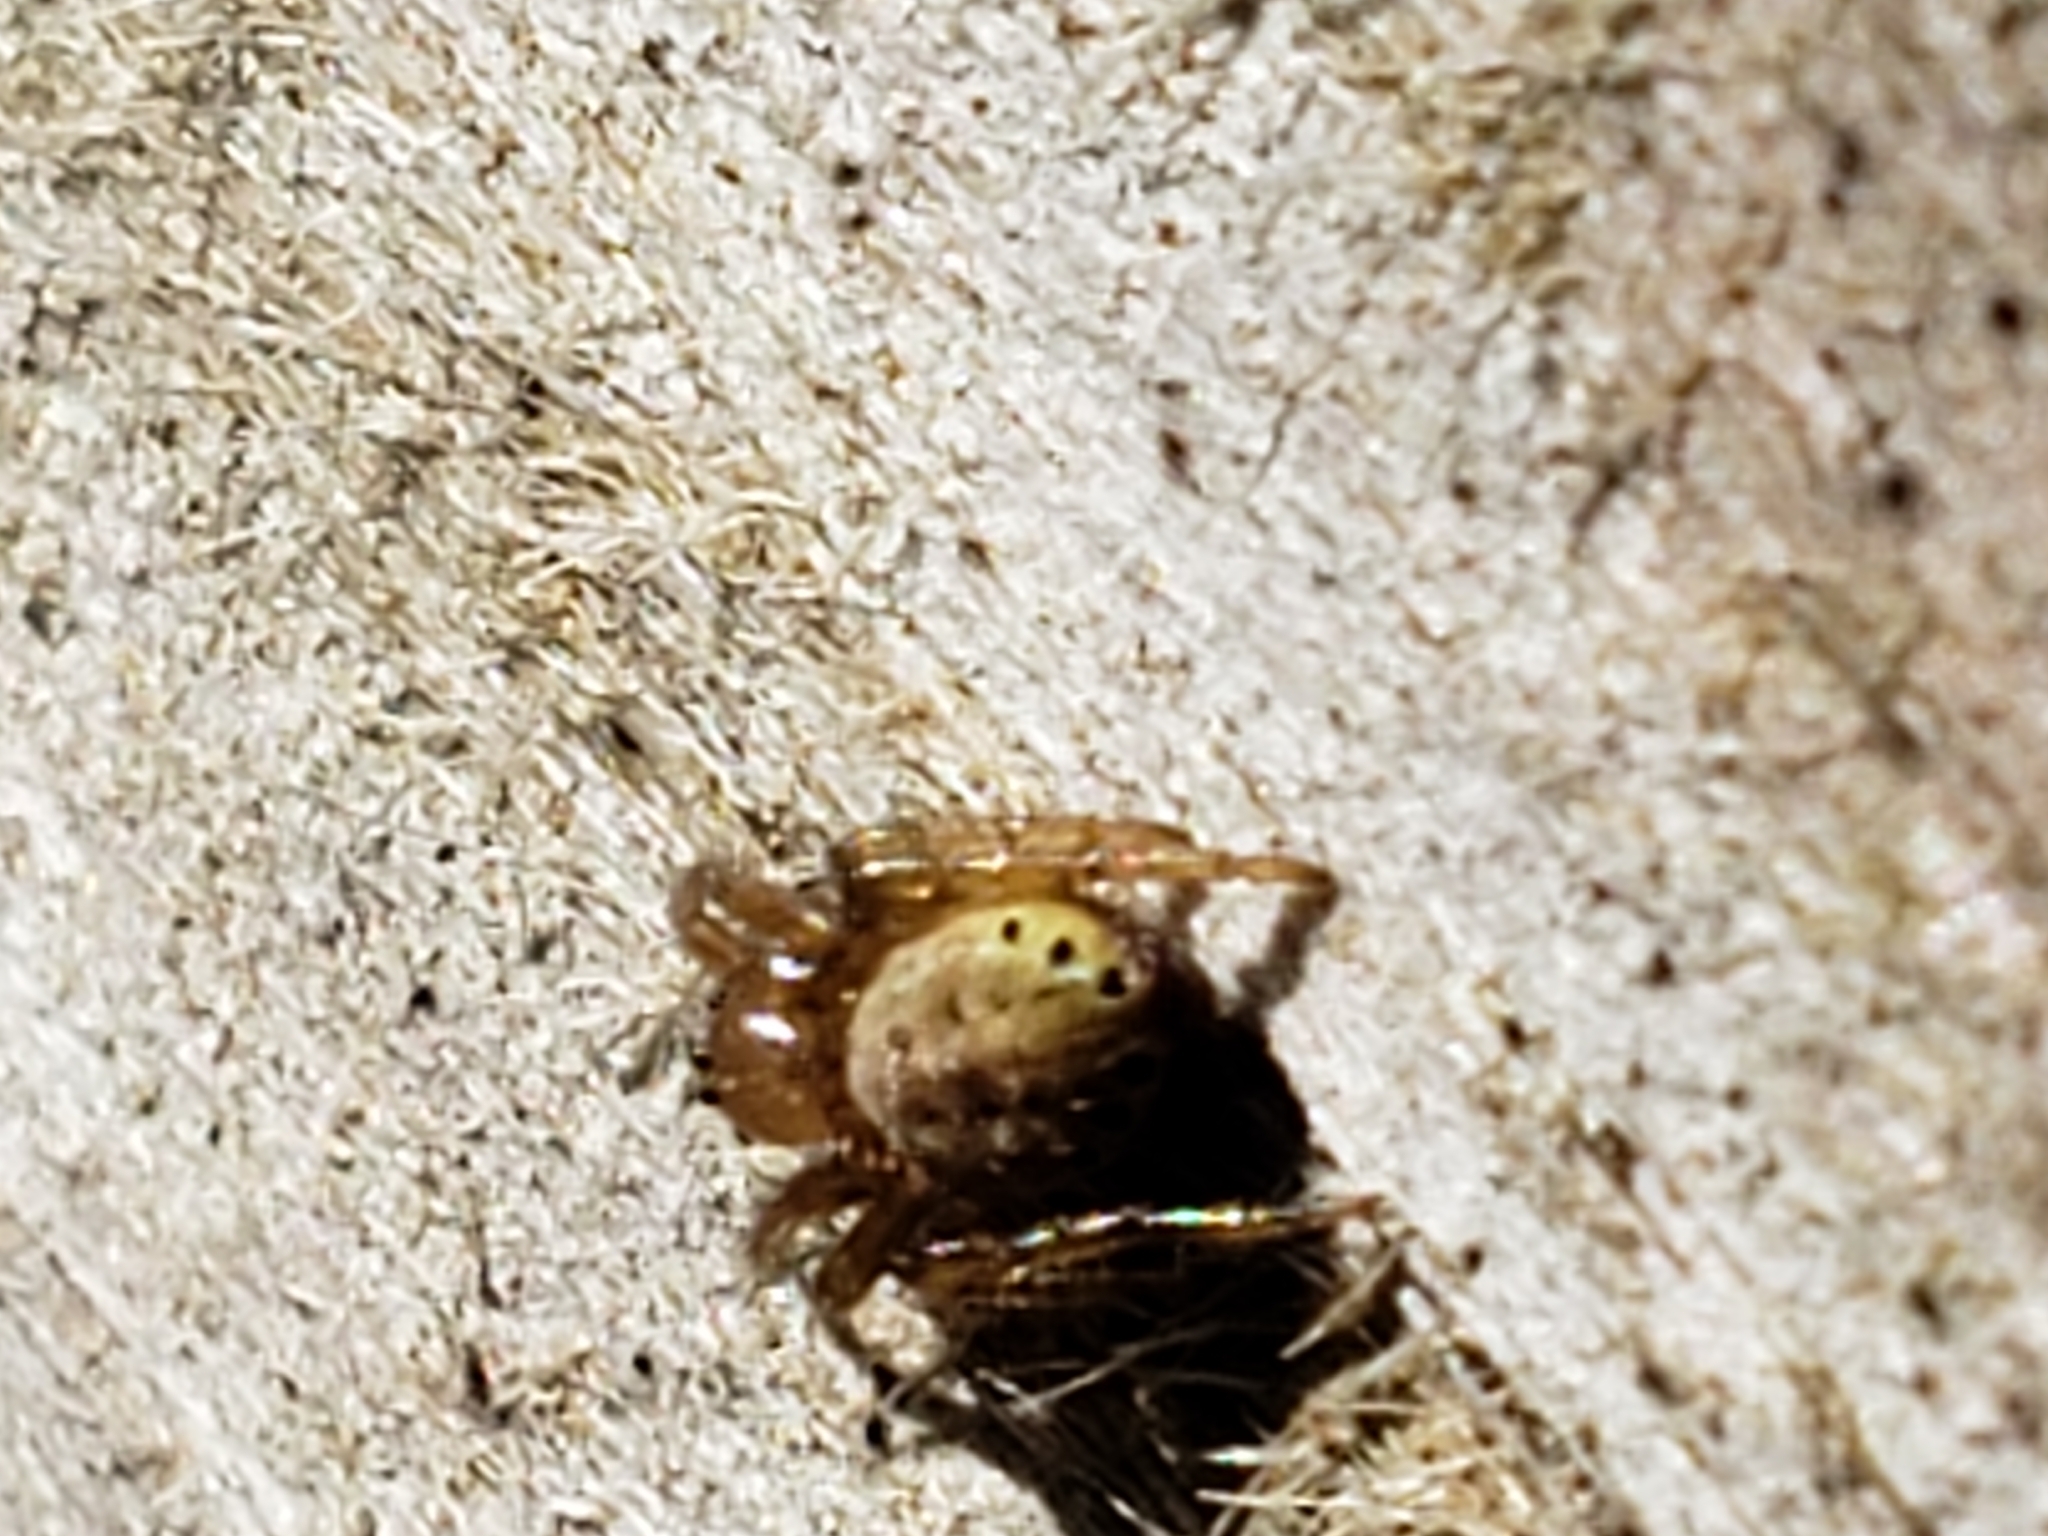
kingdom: Animalia
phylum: Arthropoda
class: Arachnida
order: Araneae
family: Araneidae
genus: Araniella
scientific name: Araniella displicata
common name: Sixspotted orb weaver
